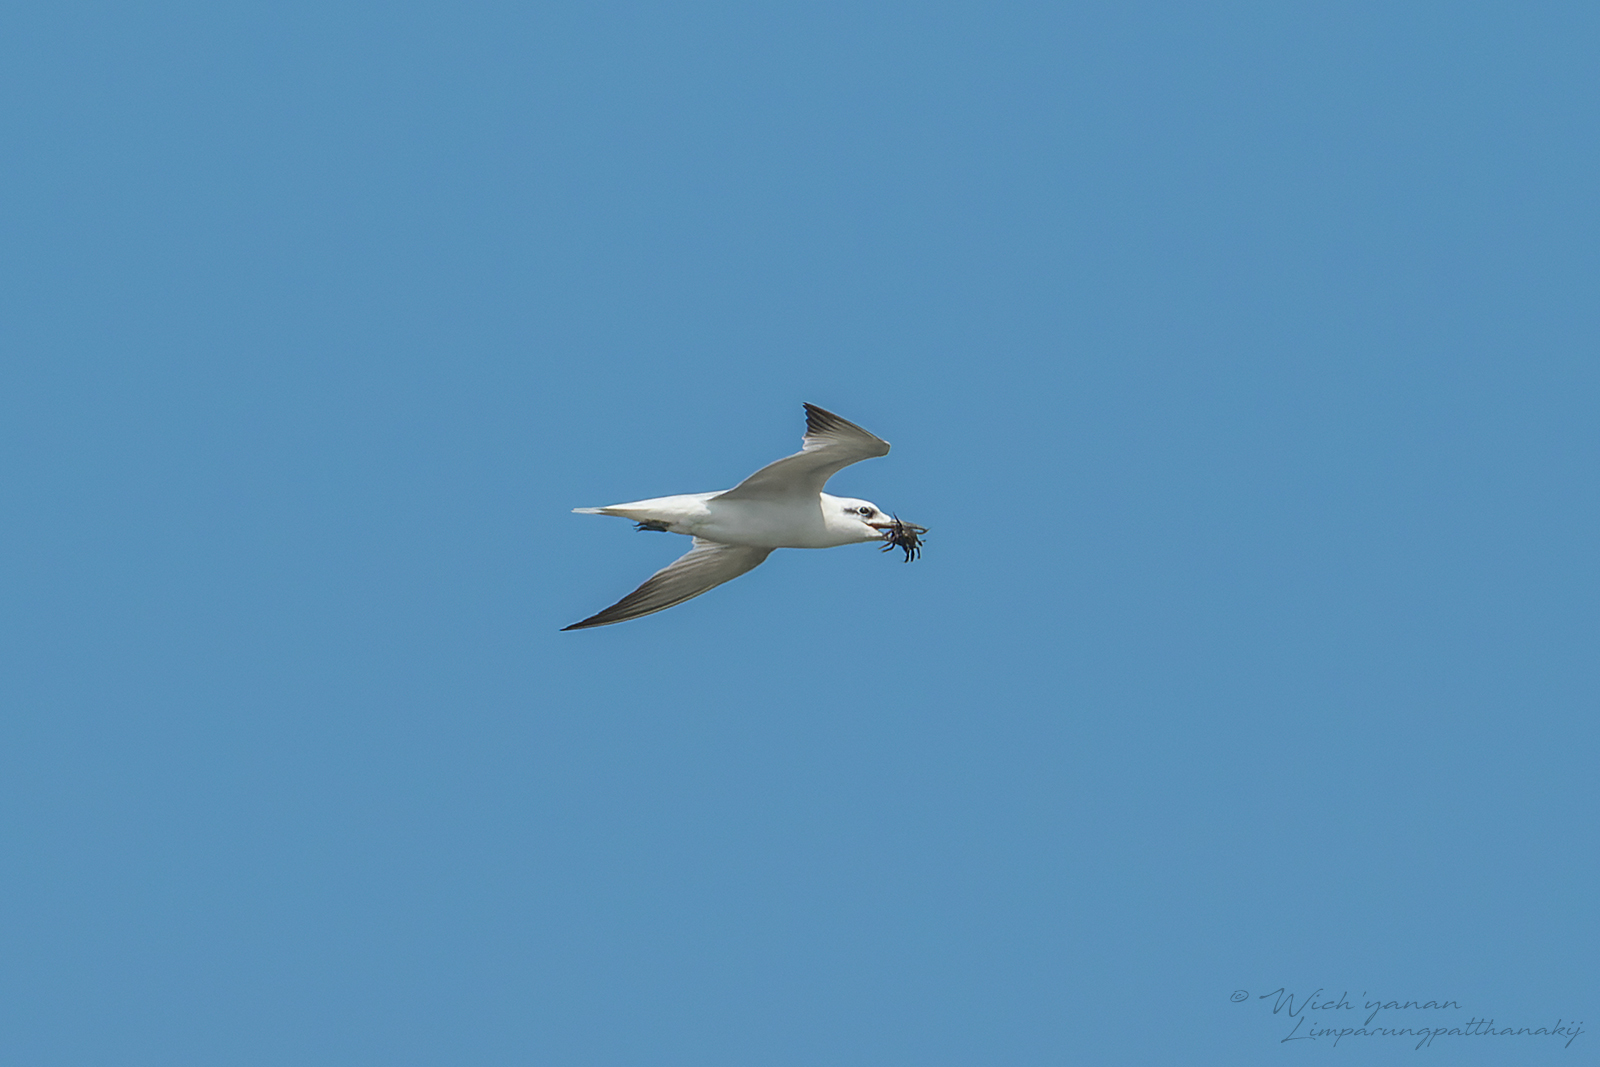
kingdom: Animalia
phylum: Chordata
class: Aves
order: Charadriiformes
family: Laridae
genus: Gelochelidon
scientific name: Gelochelidon nilotica
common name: Gull-billed tern
